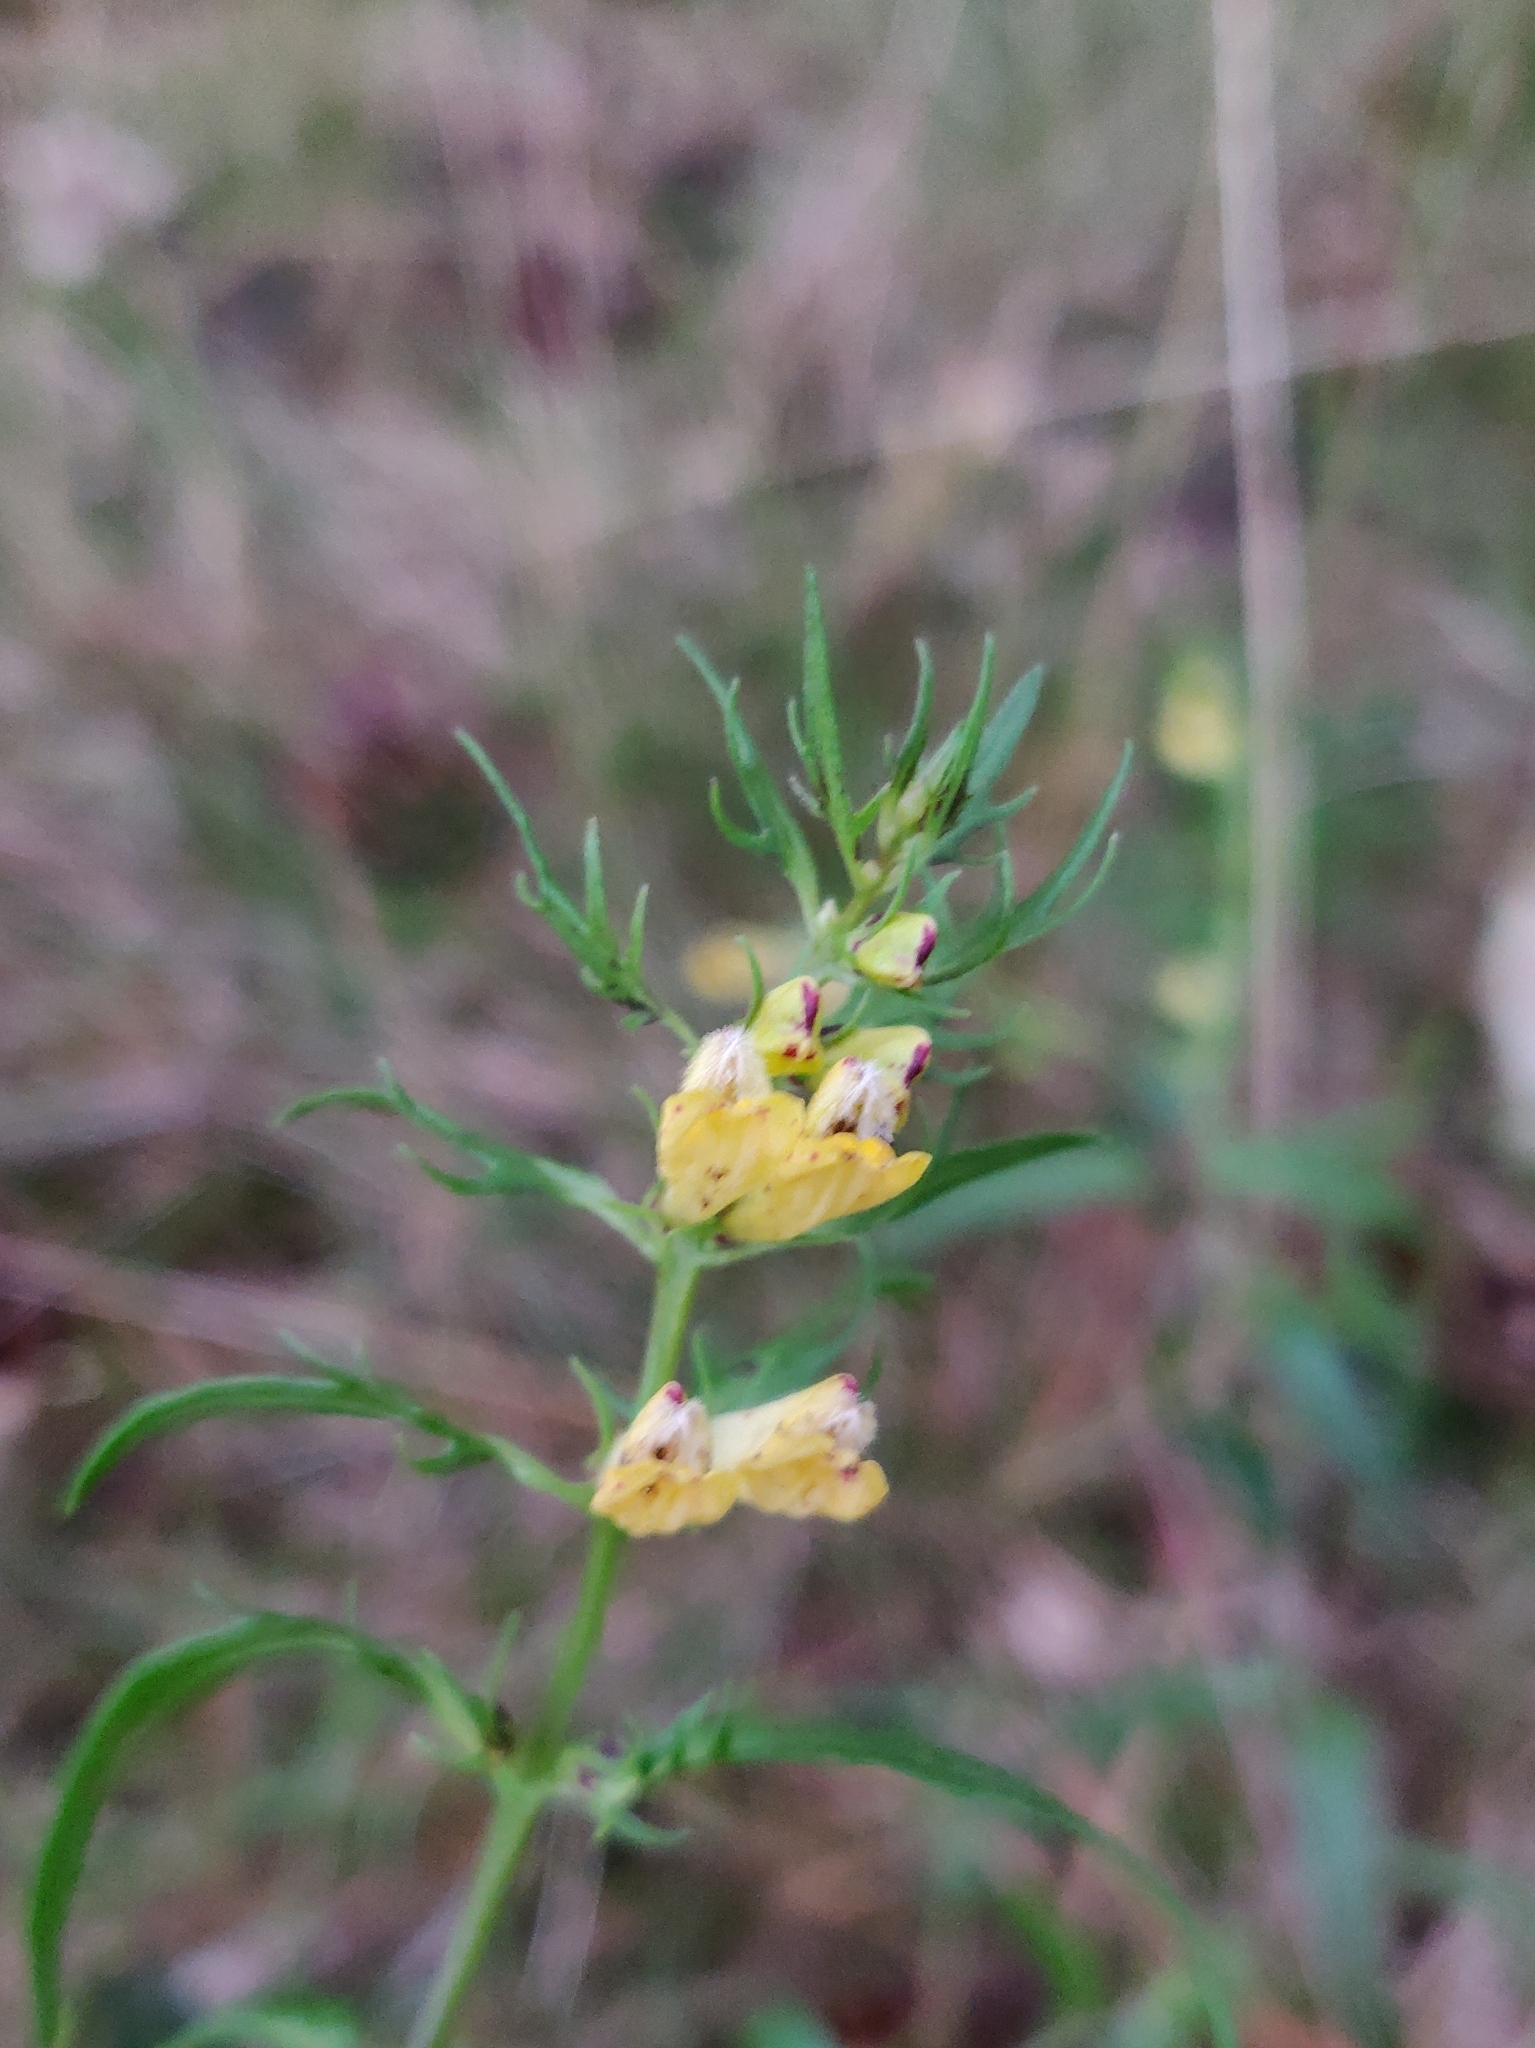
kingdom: Plantae
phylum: Tracheophyta
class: Magnoliopsida
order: Lamiales
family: Orobanchaceae
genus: Melampyrum
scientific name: Melampyrum pratense
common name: Common cow-wheat
